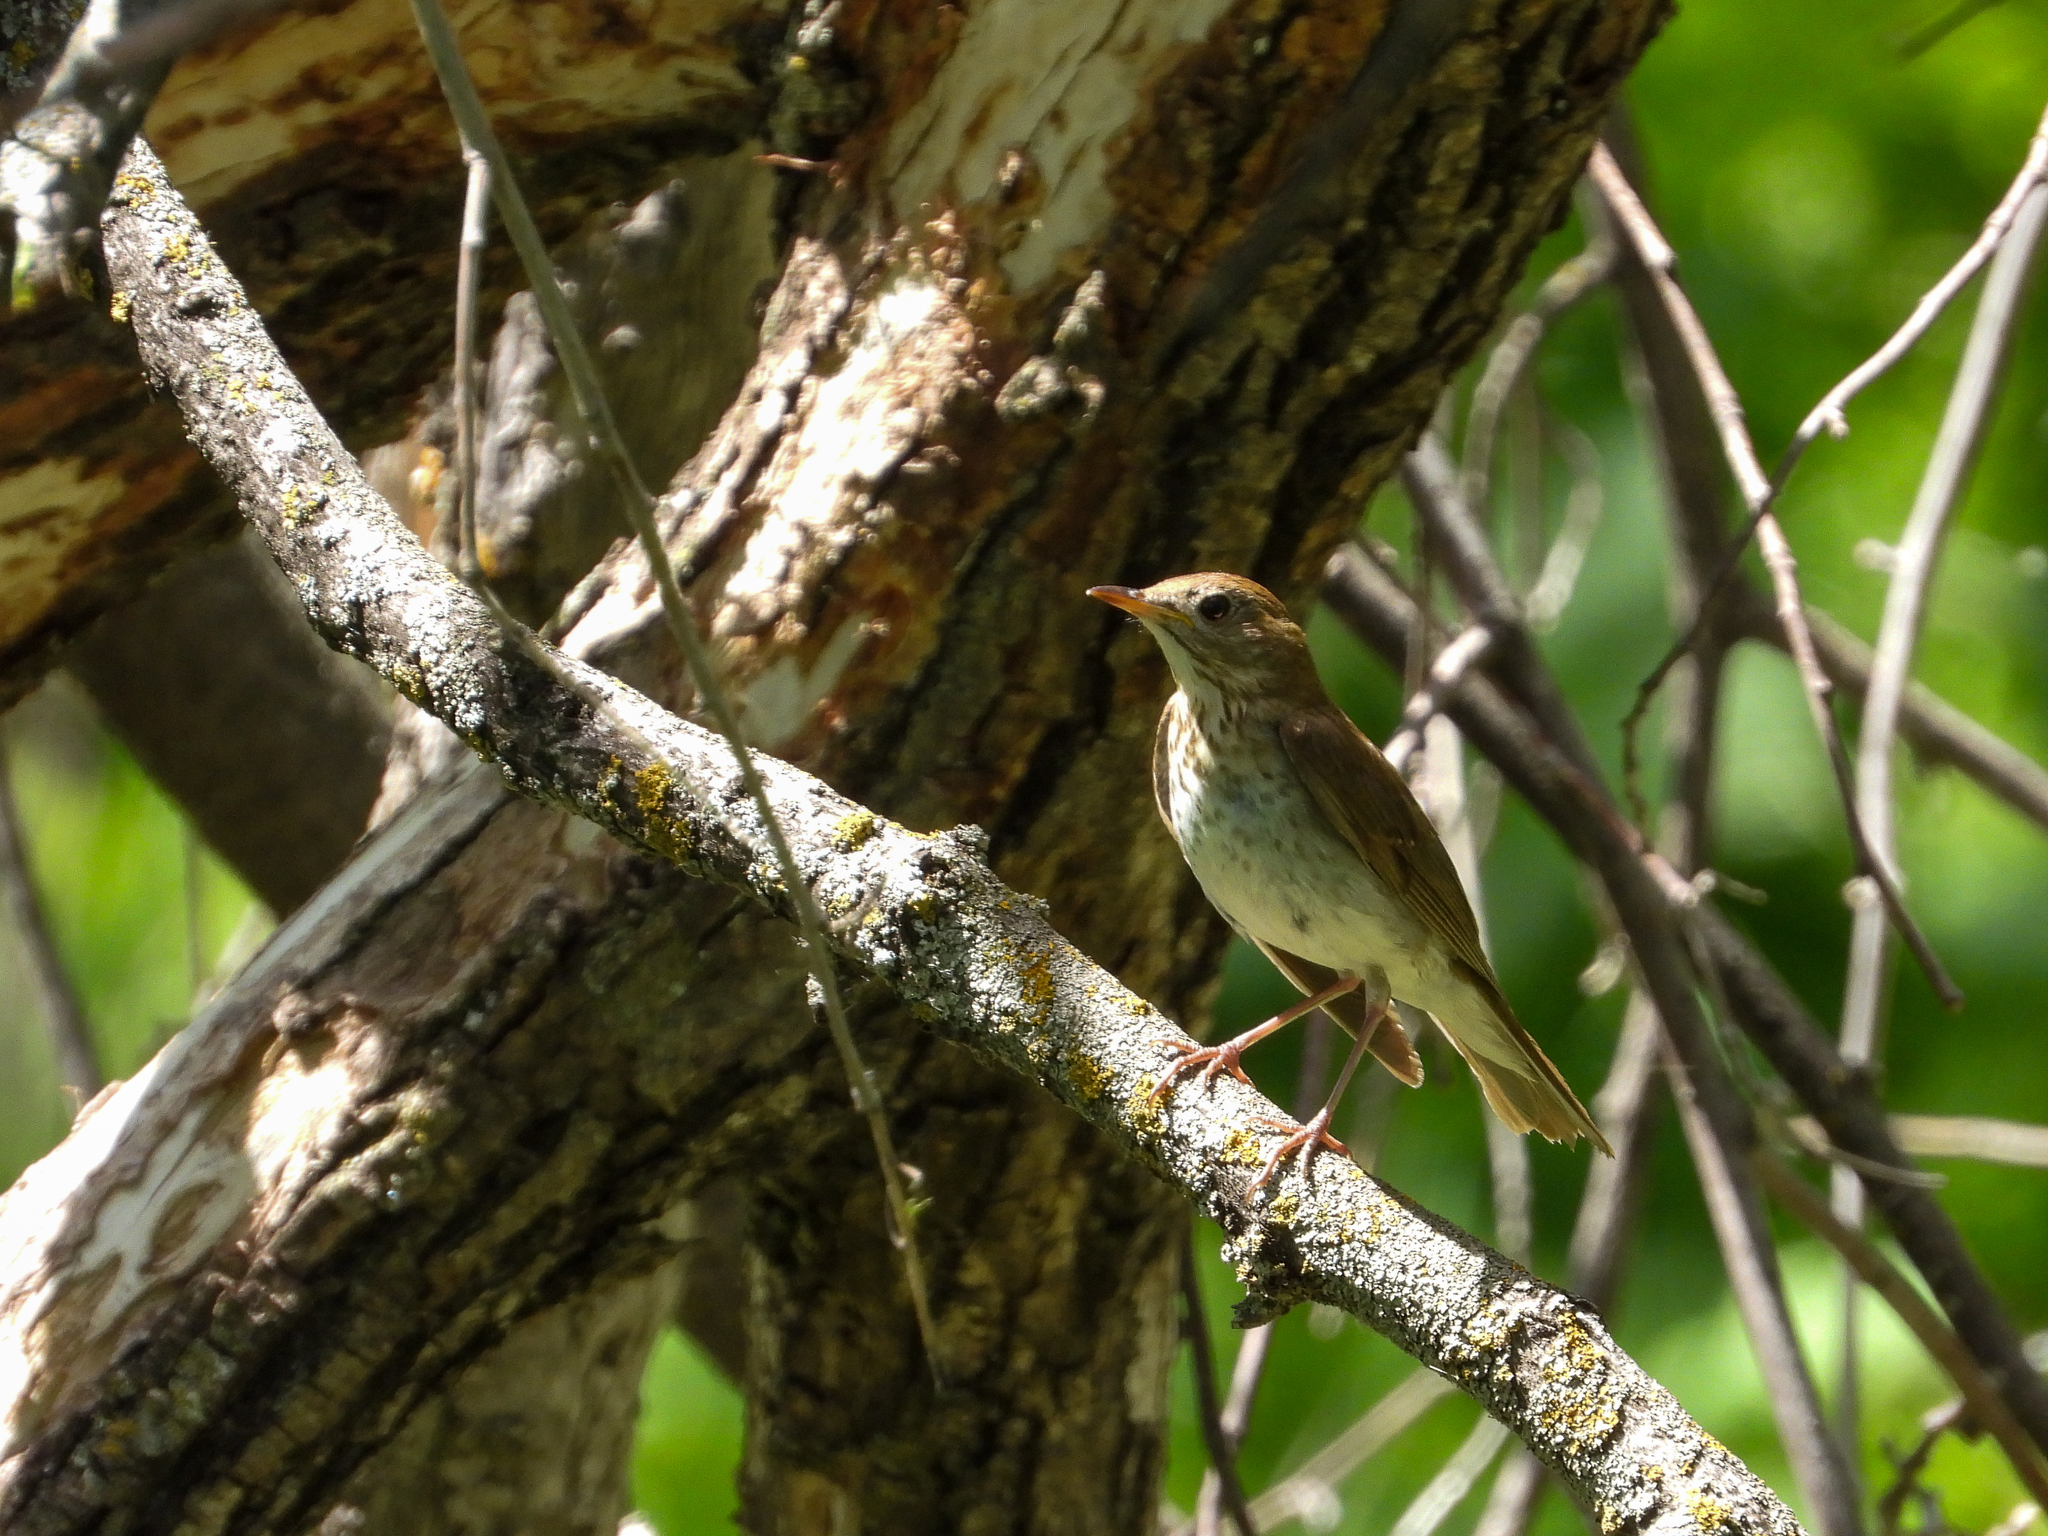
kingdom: Animalia
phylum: Chordata
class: Aves
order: Passeriformes
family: Turdidae
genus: Catharus
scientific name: Catharus fuscescens
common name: Veery
